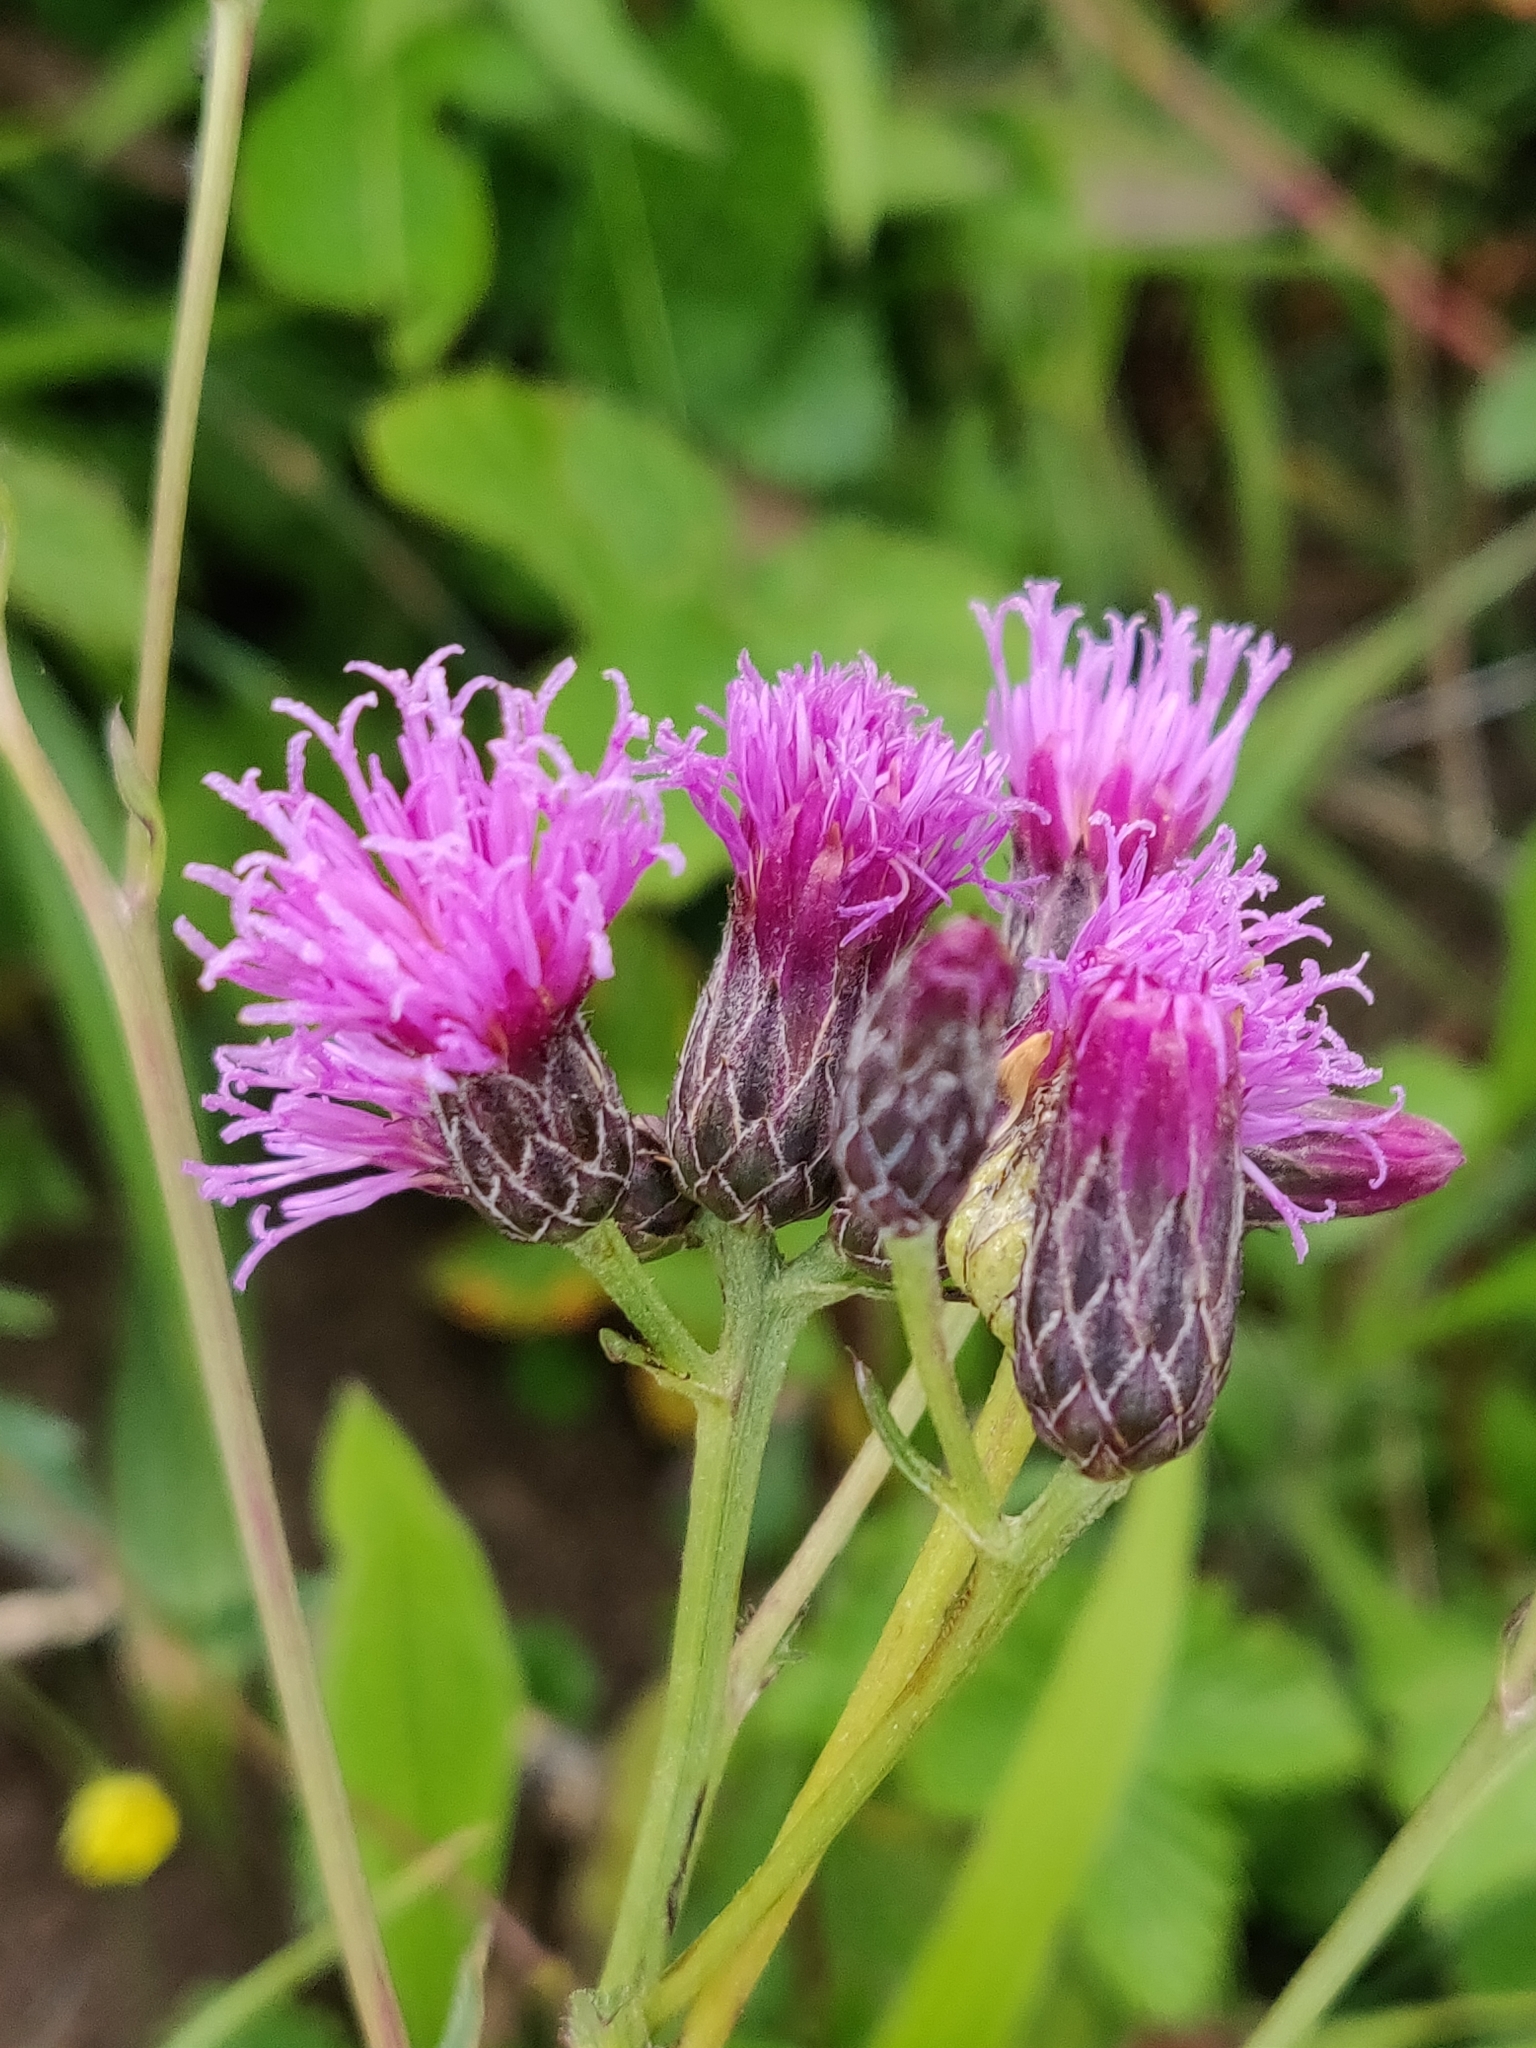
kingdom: Plantae
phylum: Tracheophyta
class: Magnoliopsida
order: Asterales
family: Asteraceae
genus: Serratula
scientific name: Serratula tinctoria
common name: Saw-wort
